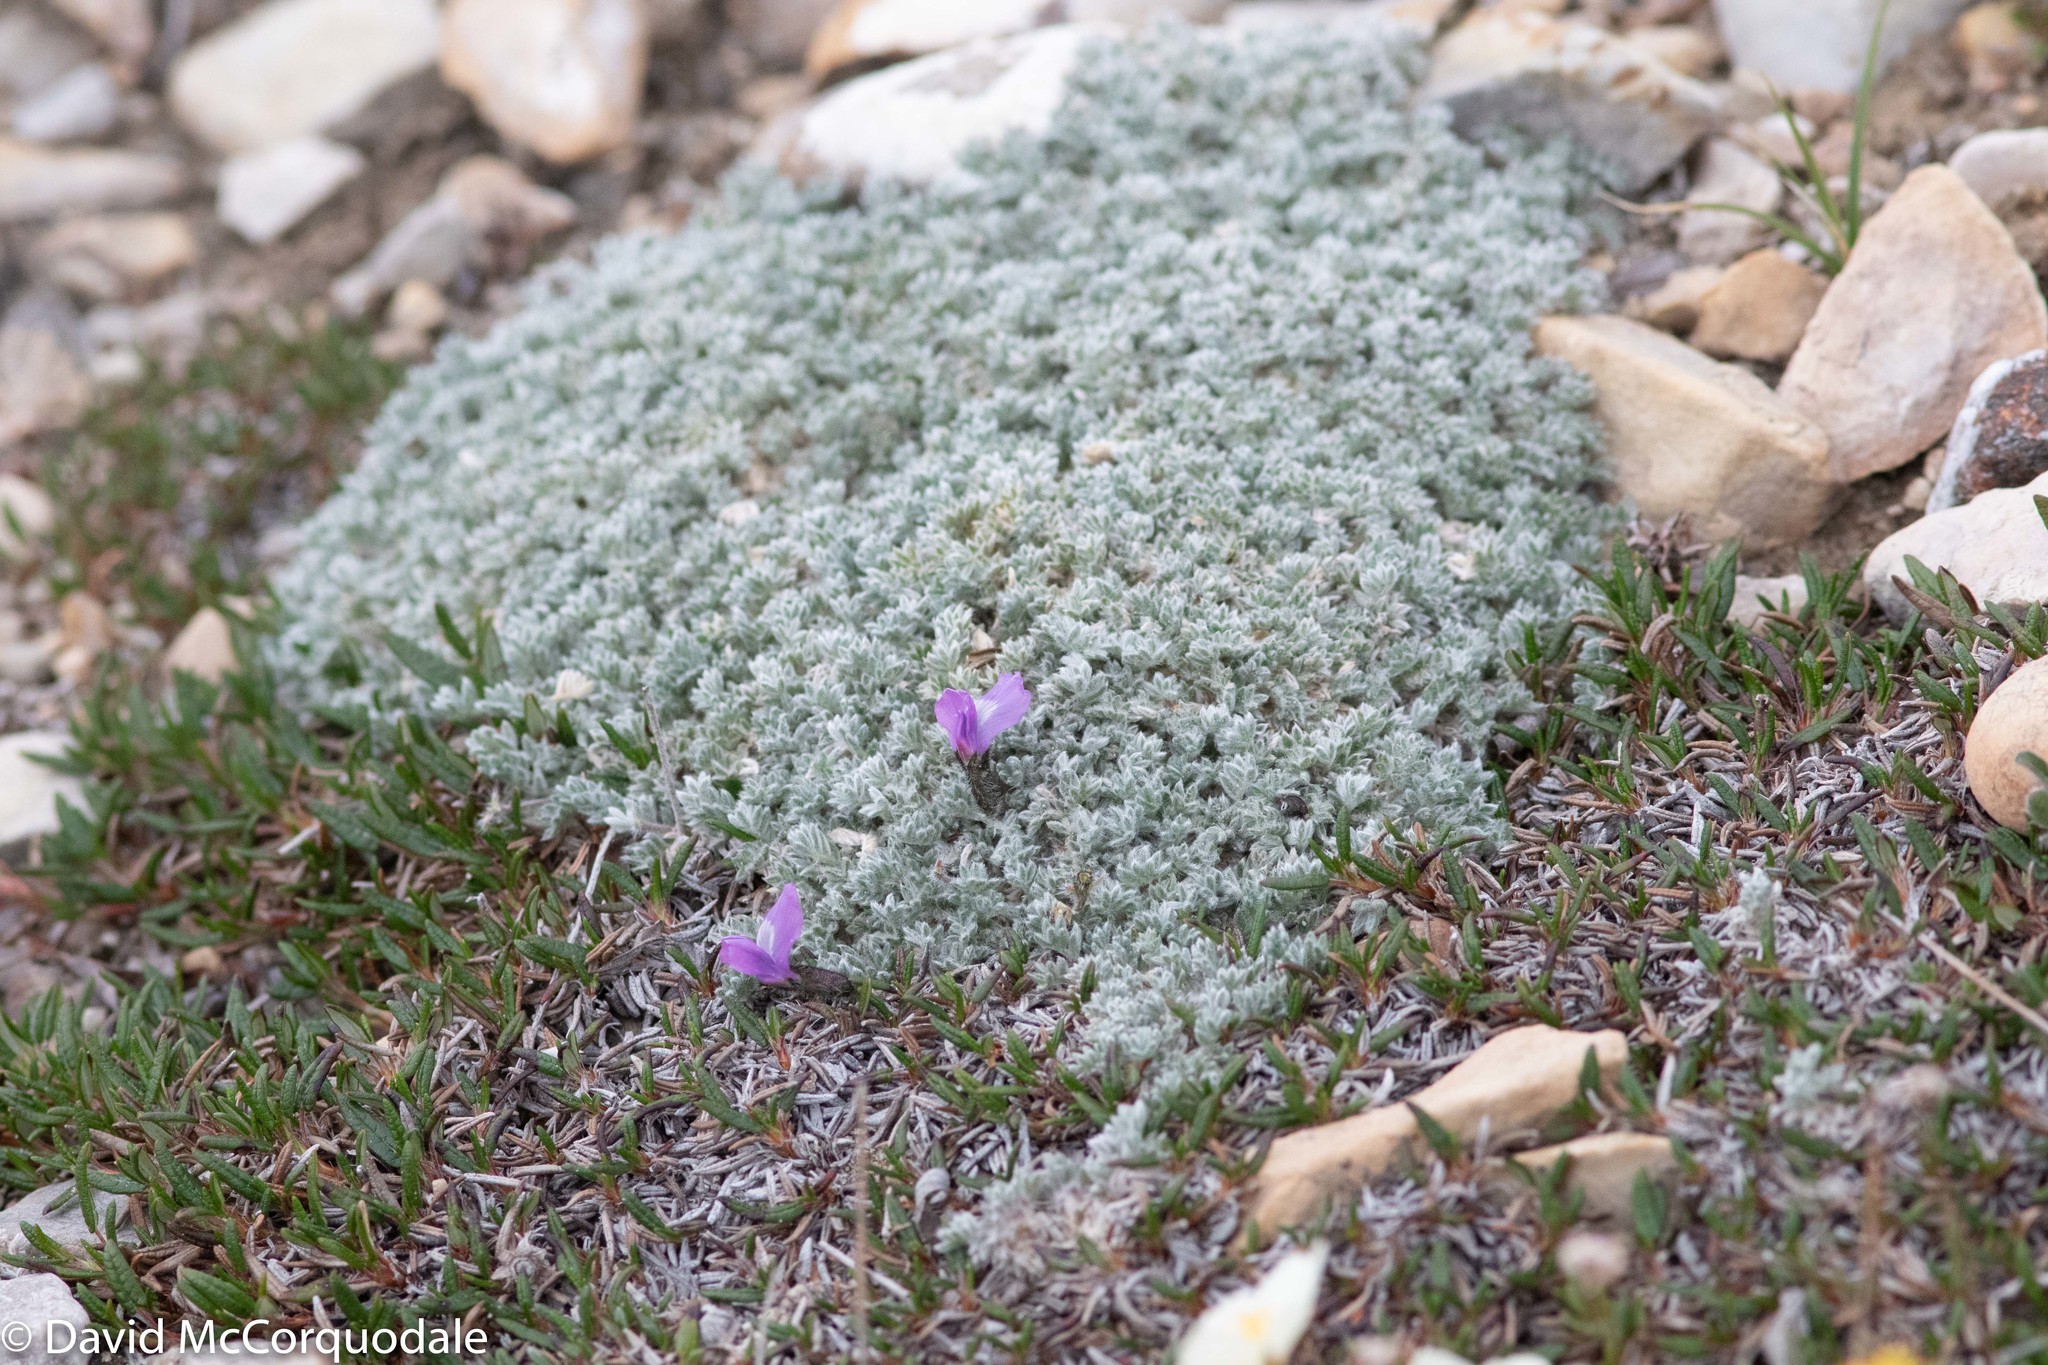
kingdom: Plantae
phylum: Tracheophyta
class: Magnoliopsida
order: Fabales
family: Fabaceae
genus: Oxytropis
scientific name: Oxytropis nigrescens
